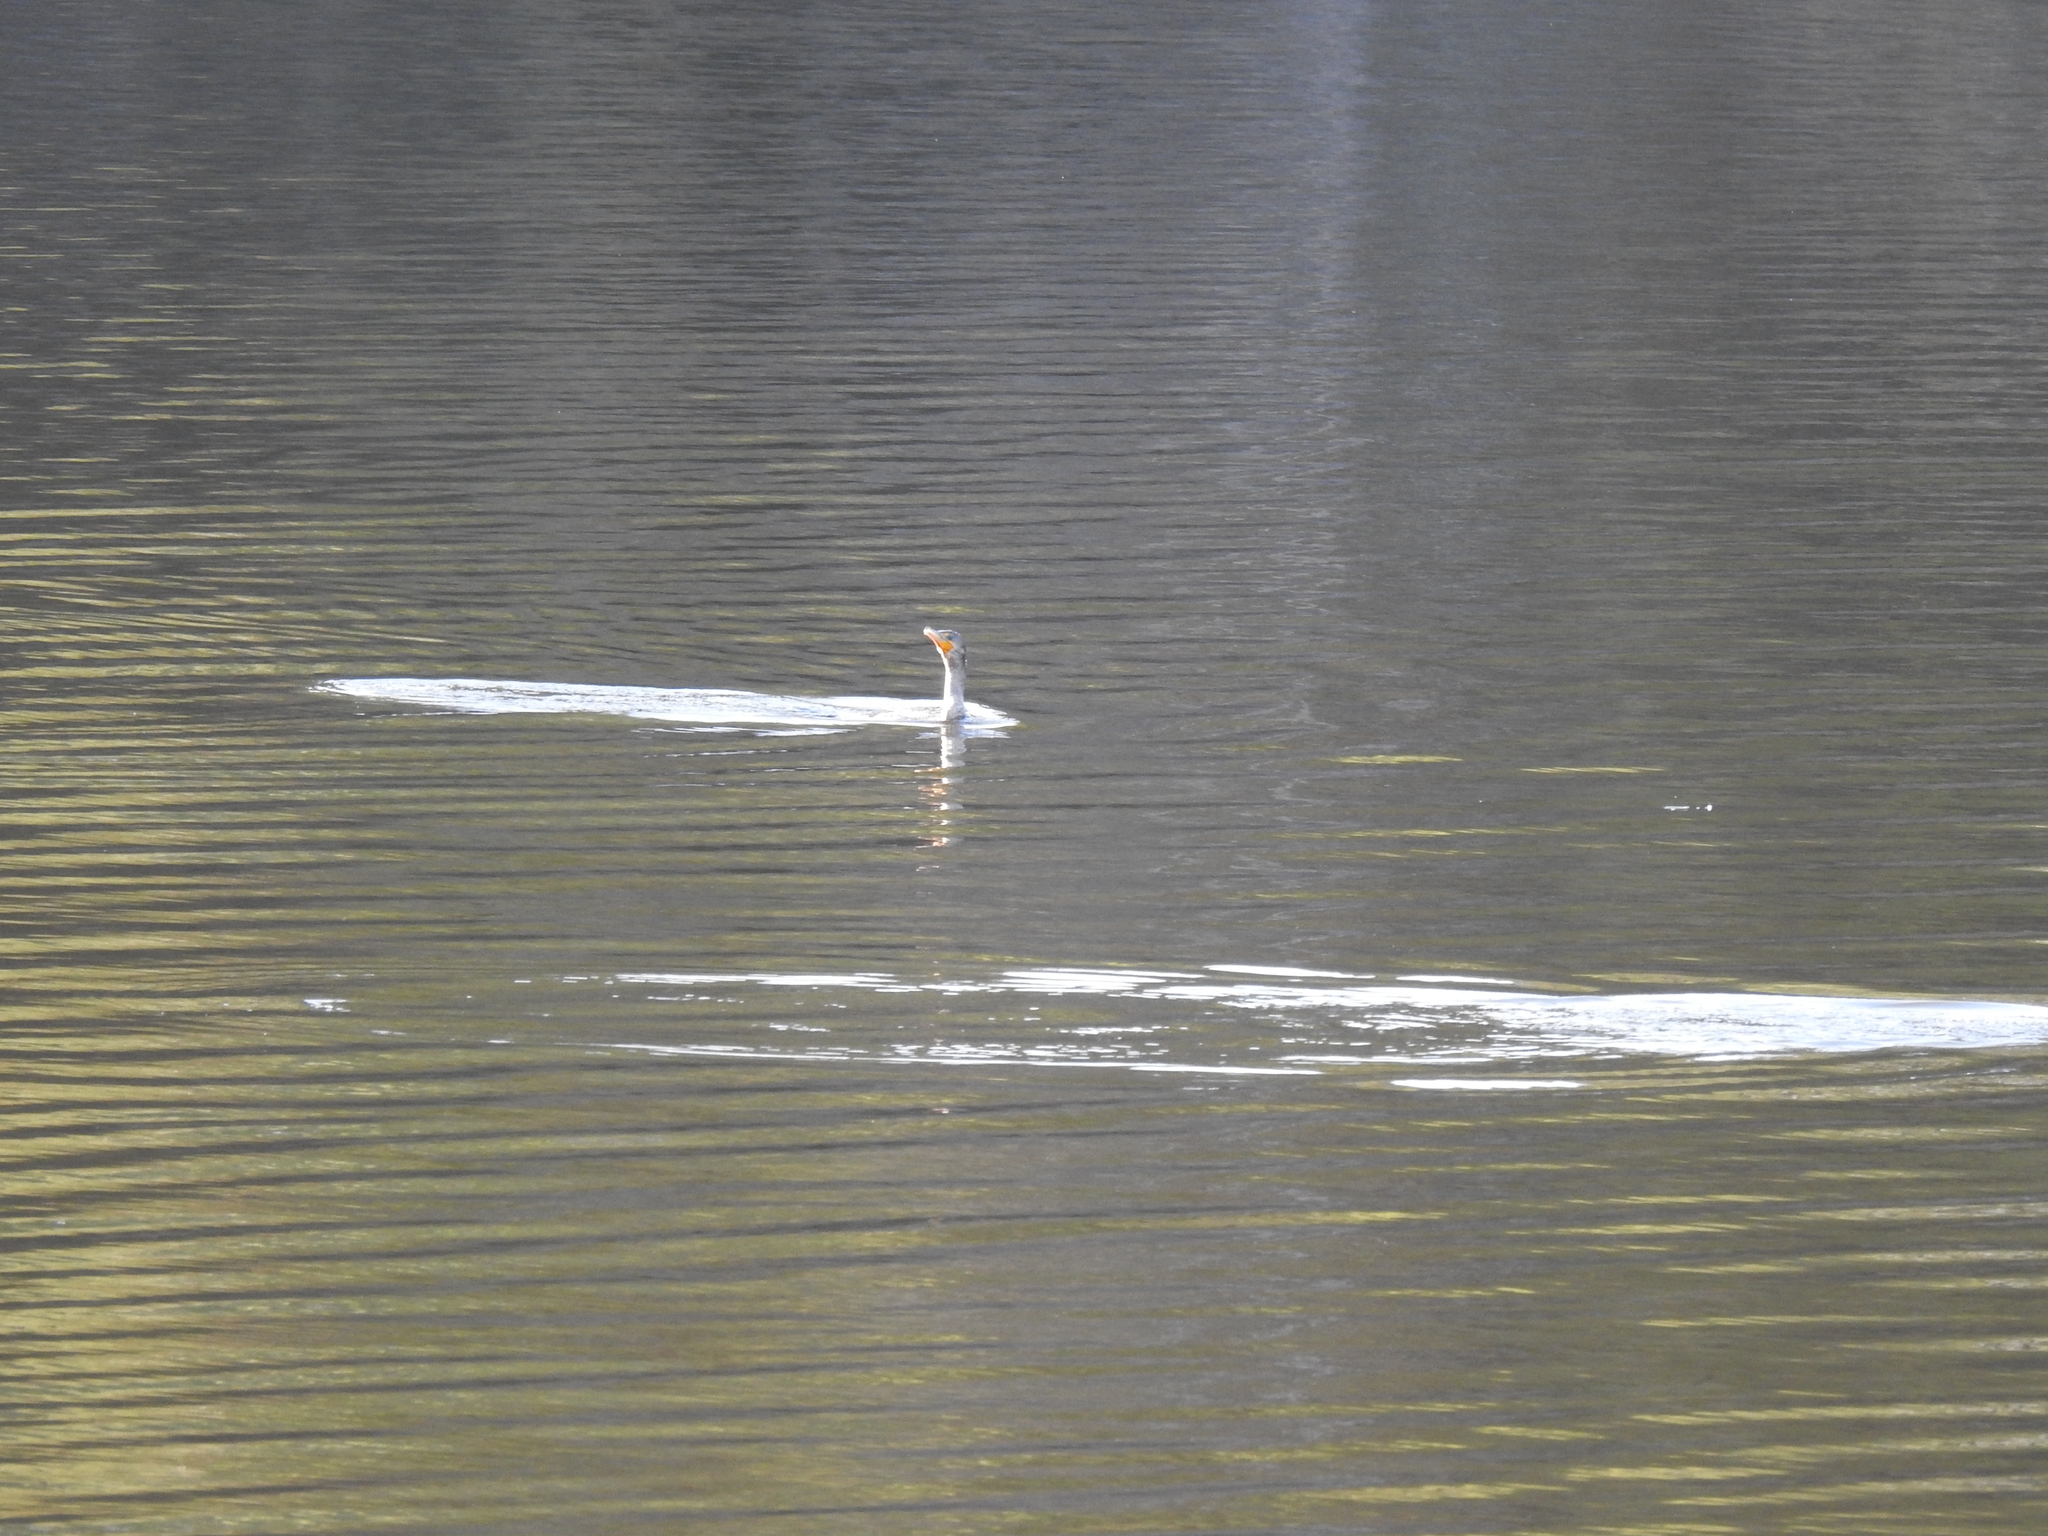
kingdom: Animalia
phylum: Chordata
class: Aves
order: Suliformes
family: Phalacrocoracidae
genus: Phalacrocorax
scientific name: Phalacrocorax auritus
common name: Double-crested cormorant
